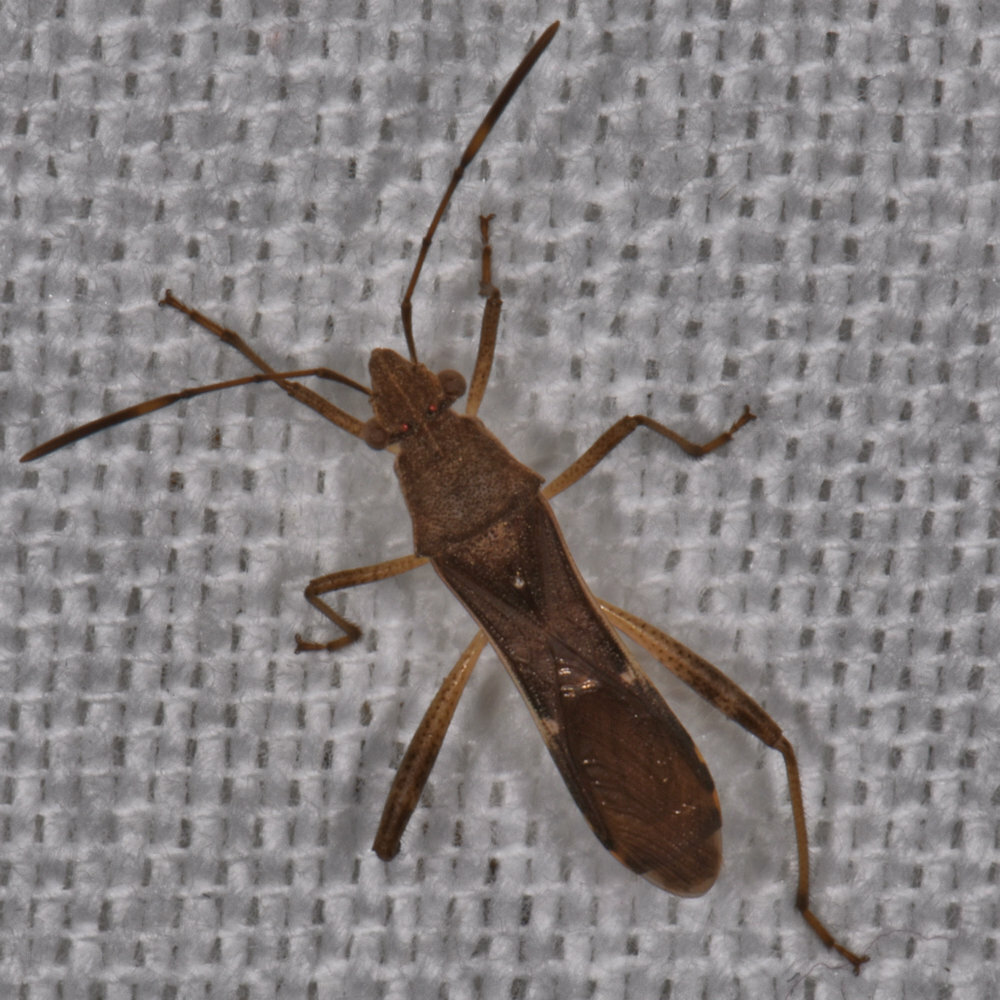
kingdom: Animalia
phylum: Arthropoda
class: Insecta
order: Hemiptera
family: Alydidae
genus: Burtinus
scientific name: Burtinus notatipennis
